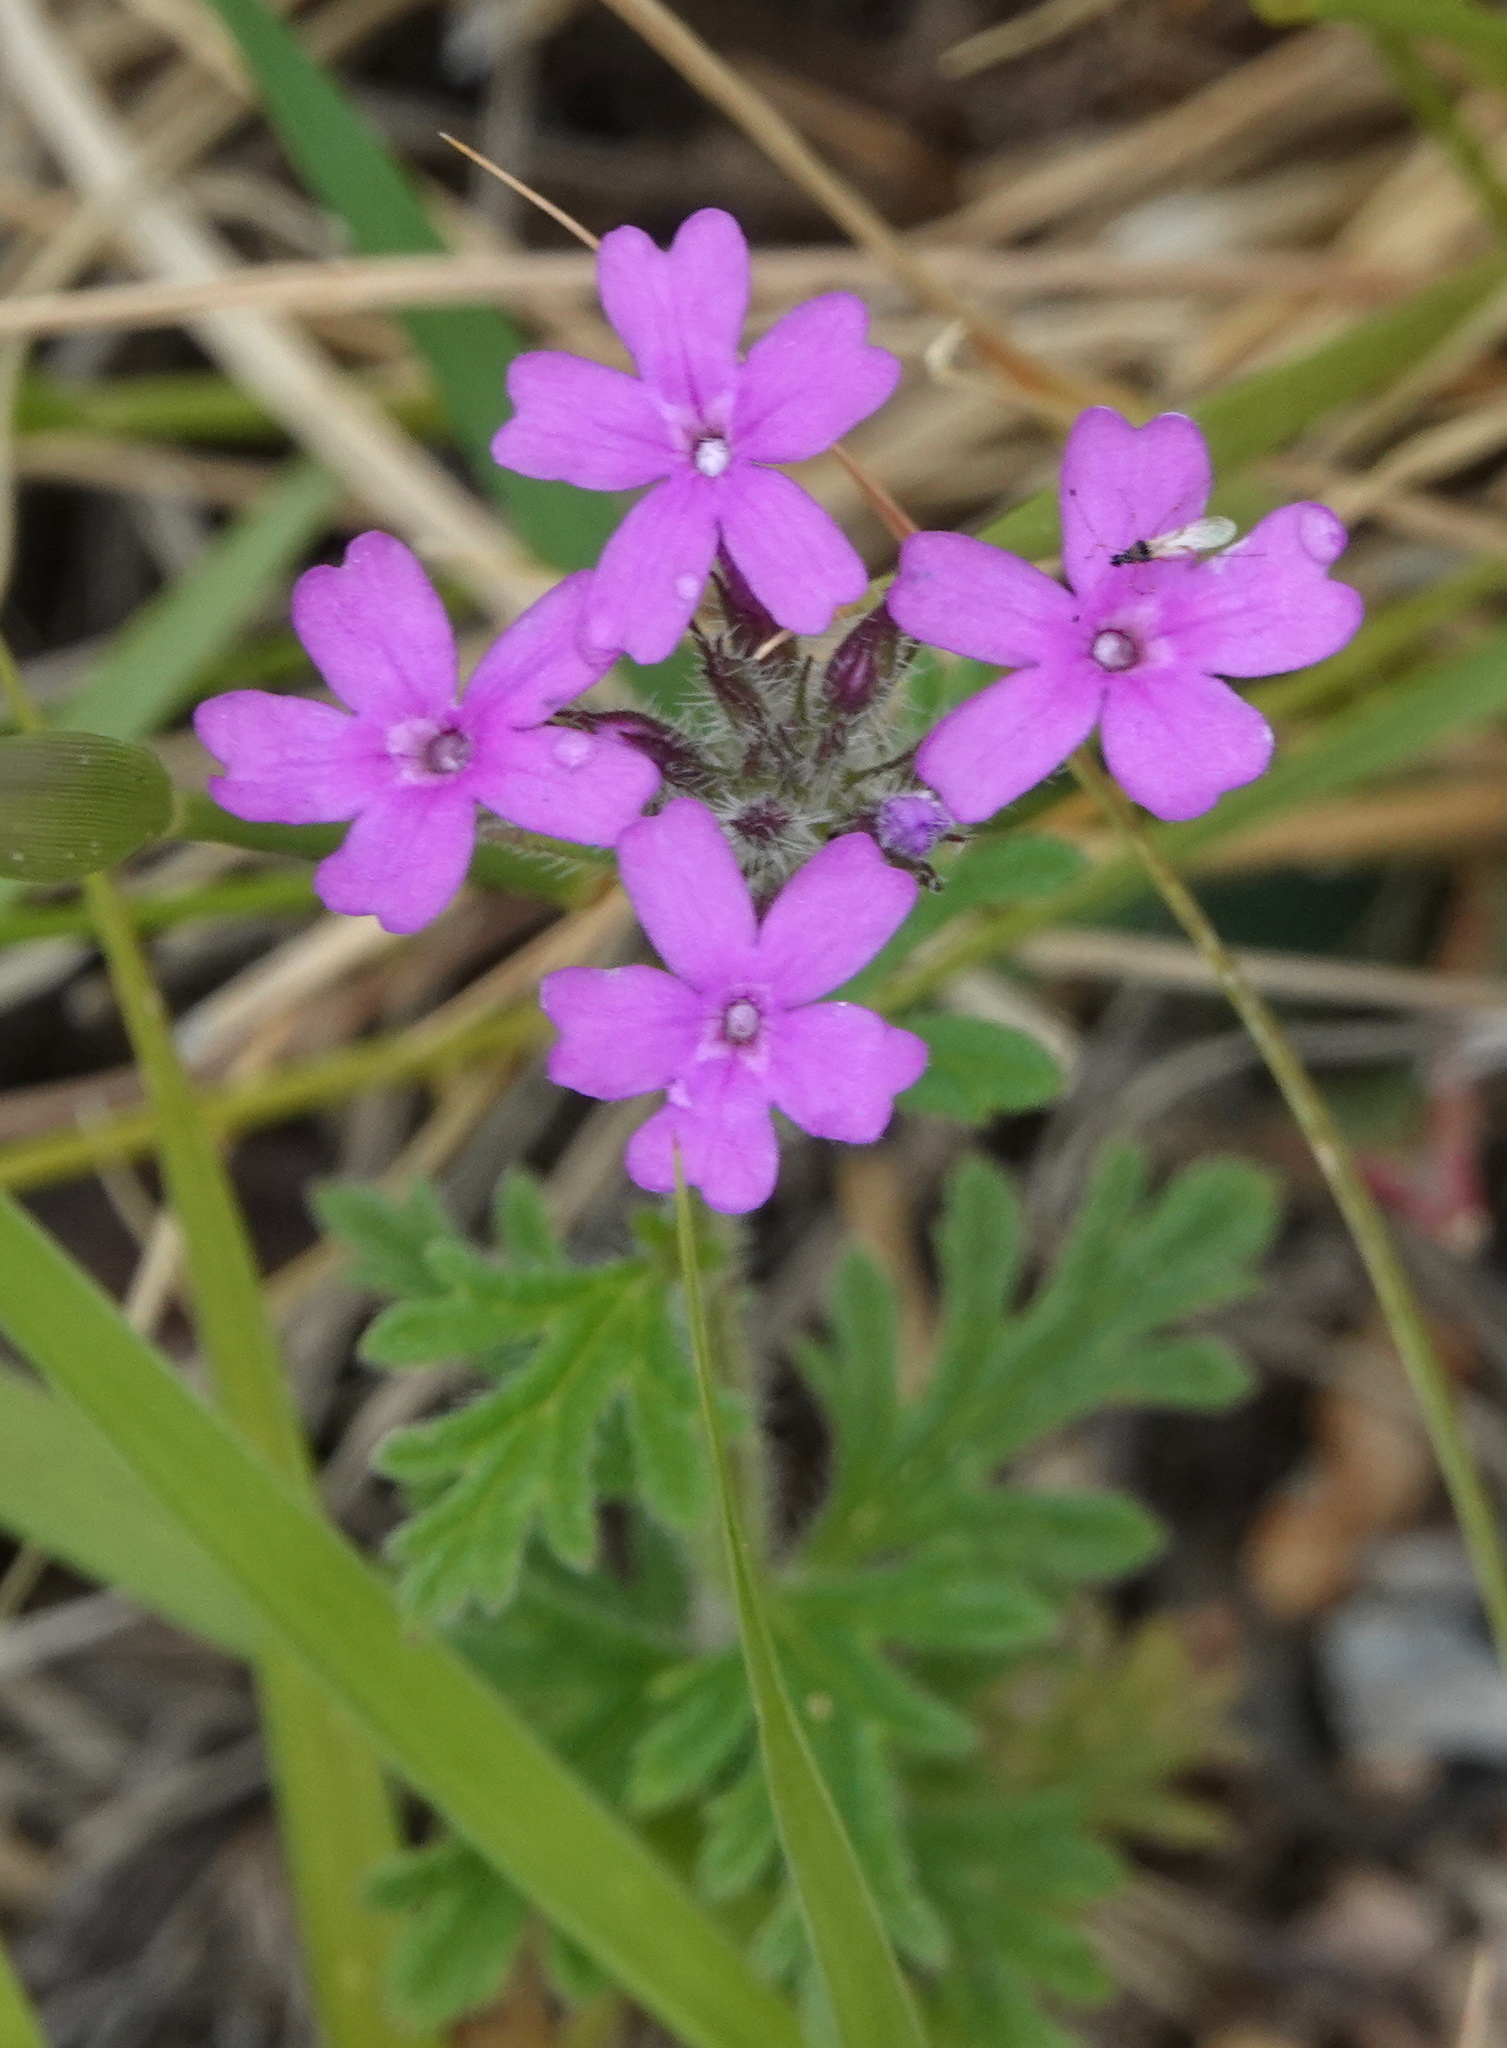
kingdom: Plantae
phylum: Tracheophyta
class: Magnoliopsida
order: Lamiales
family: Verbenaceae
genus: Verbena
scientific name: Verbena chiricahensis
